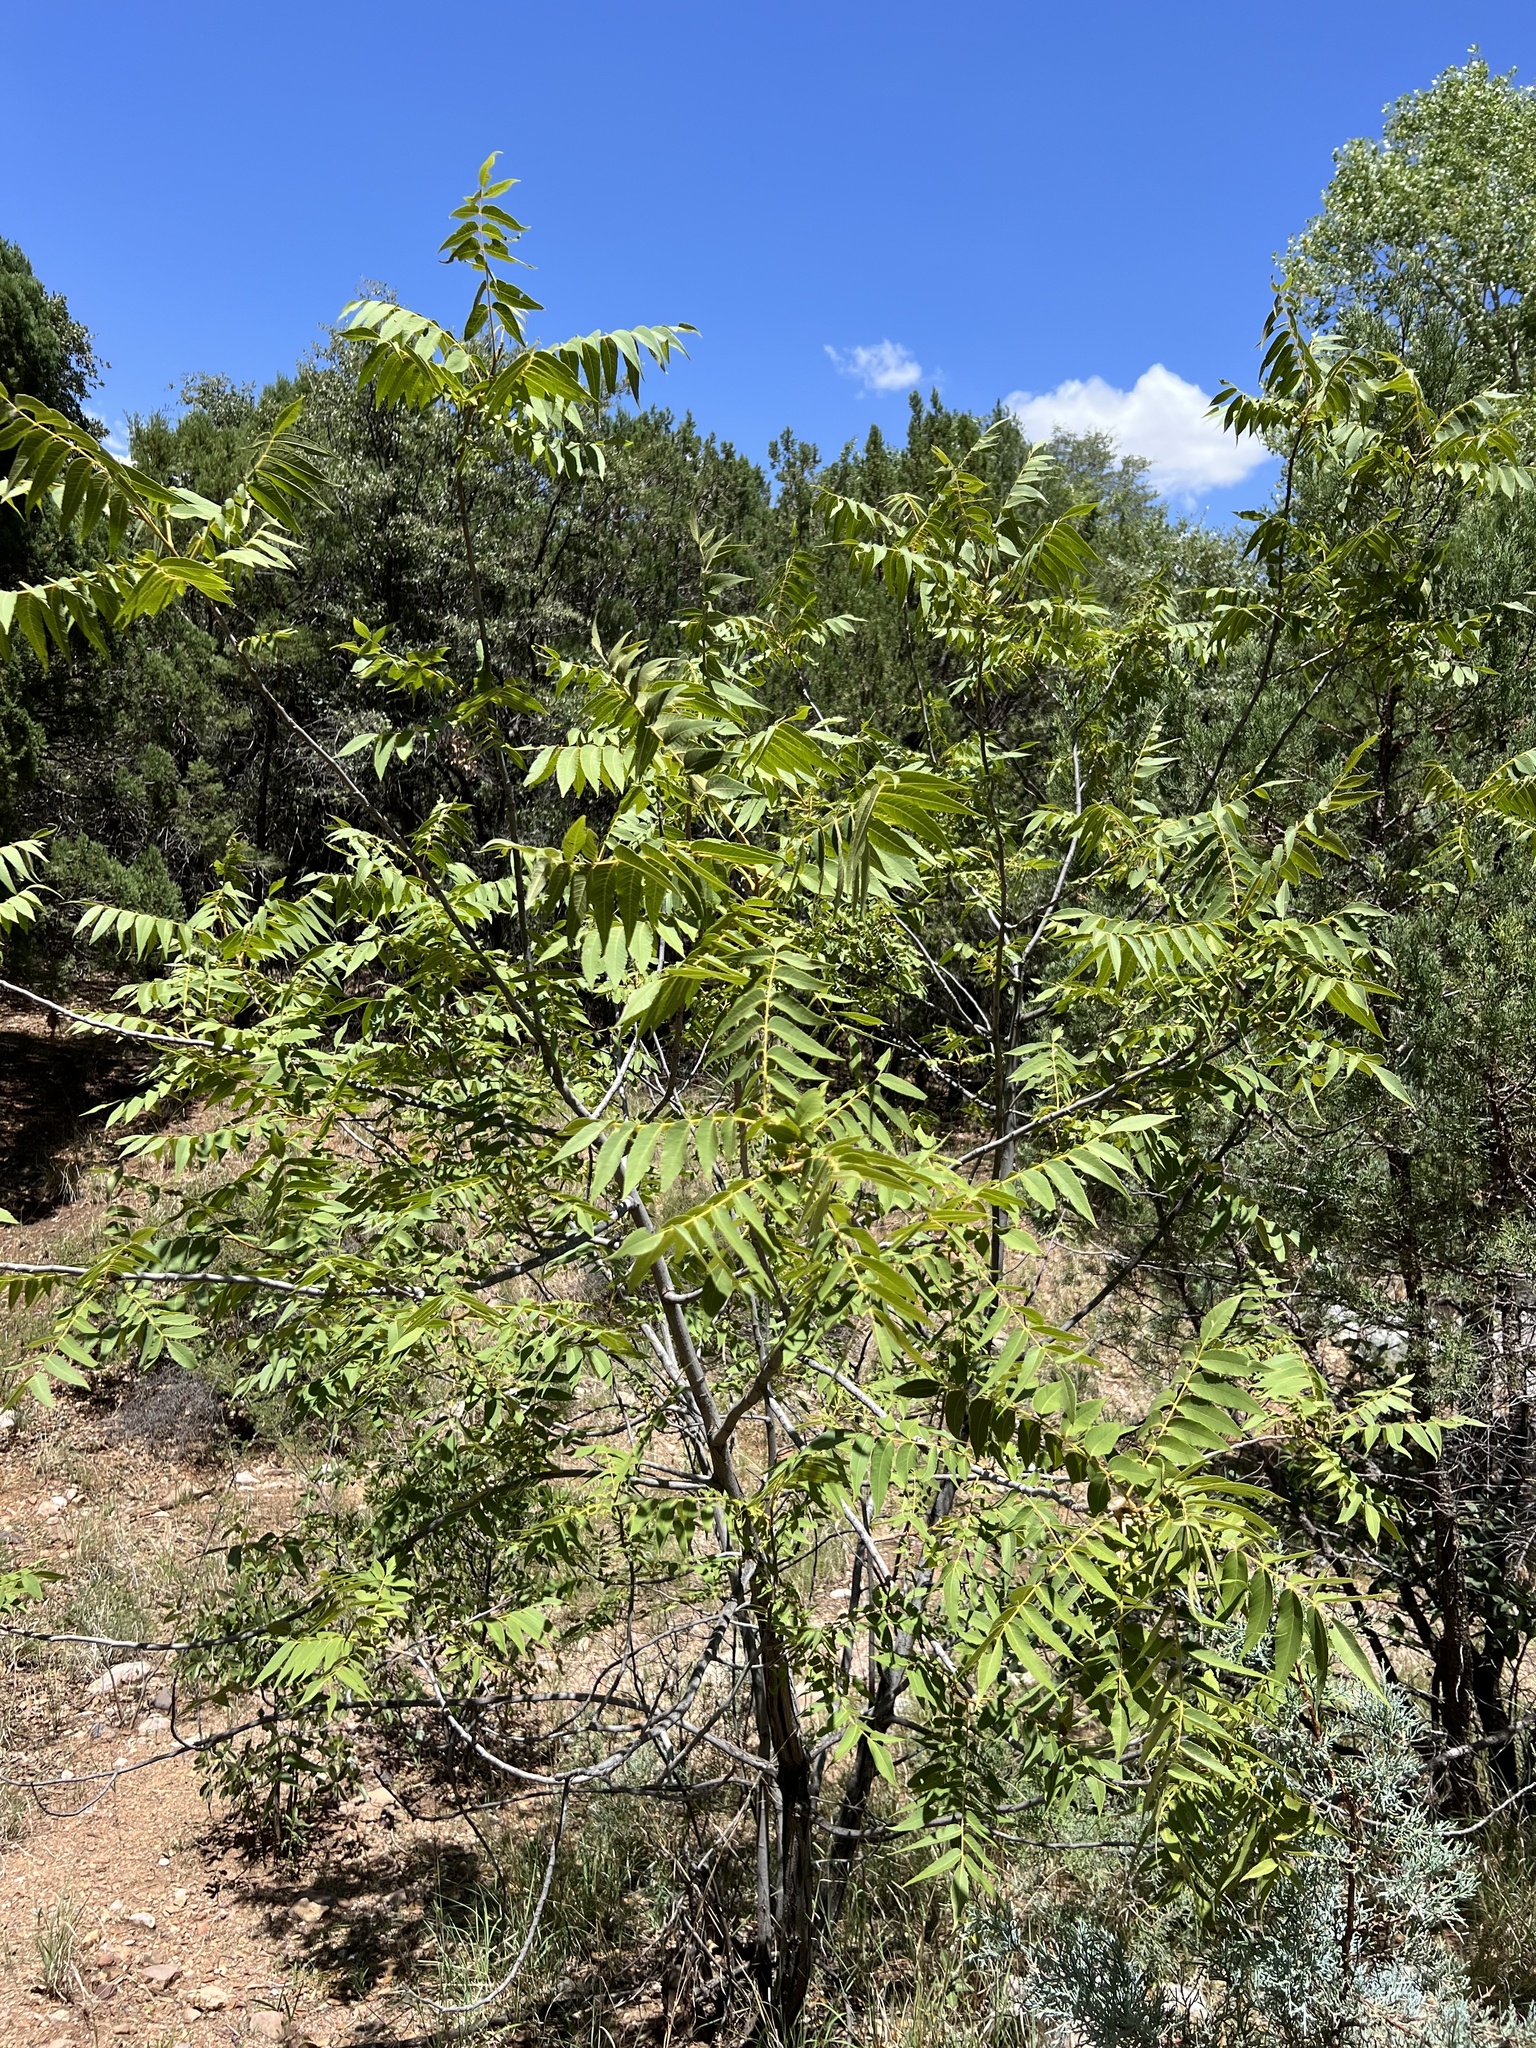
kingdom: Plantae
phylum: Tracheophyta
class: Magnoliopsida
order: Fagales
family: Juglandaceae
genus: Juglans
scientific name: Juglans major
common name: Arizona walnut
